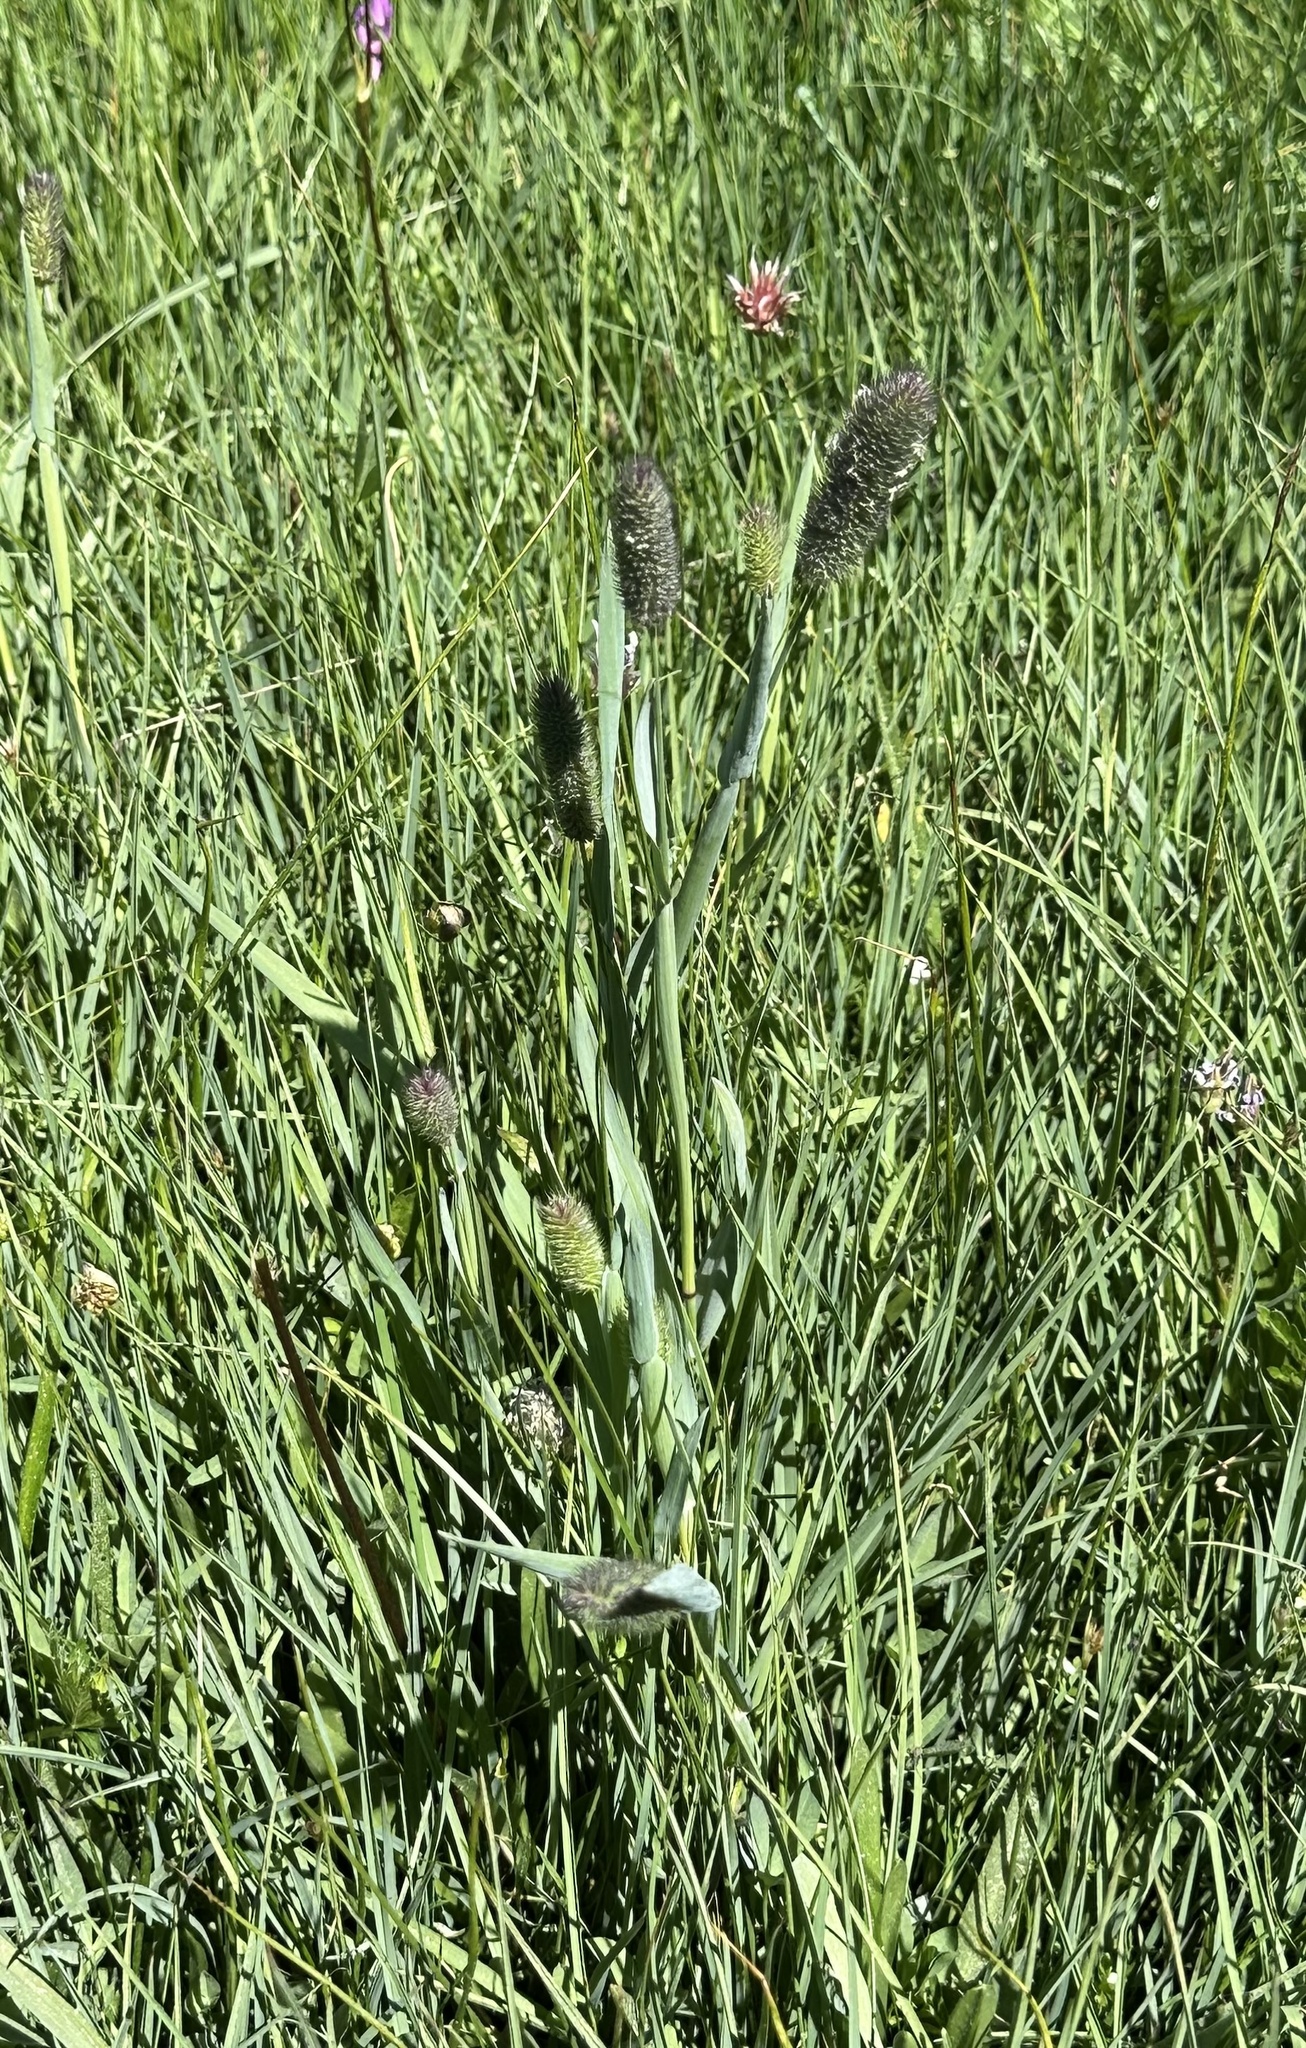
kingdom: Plantae
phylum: Tracheophyta
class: Liliopsida
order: Poales
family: Poaceae
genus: Phleum
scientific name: Phleum alpinum
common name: Alpine cat's-tail
